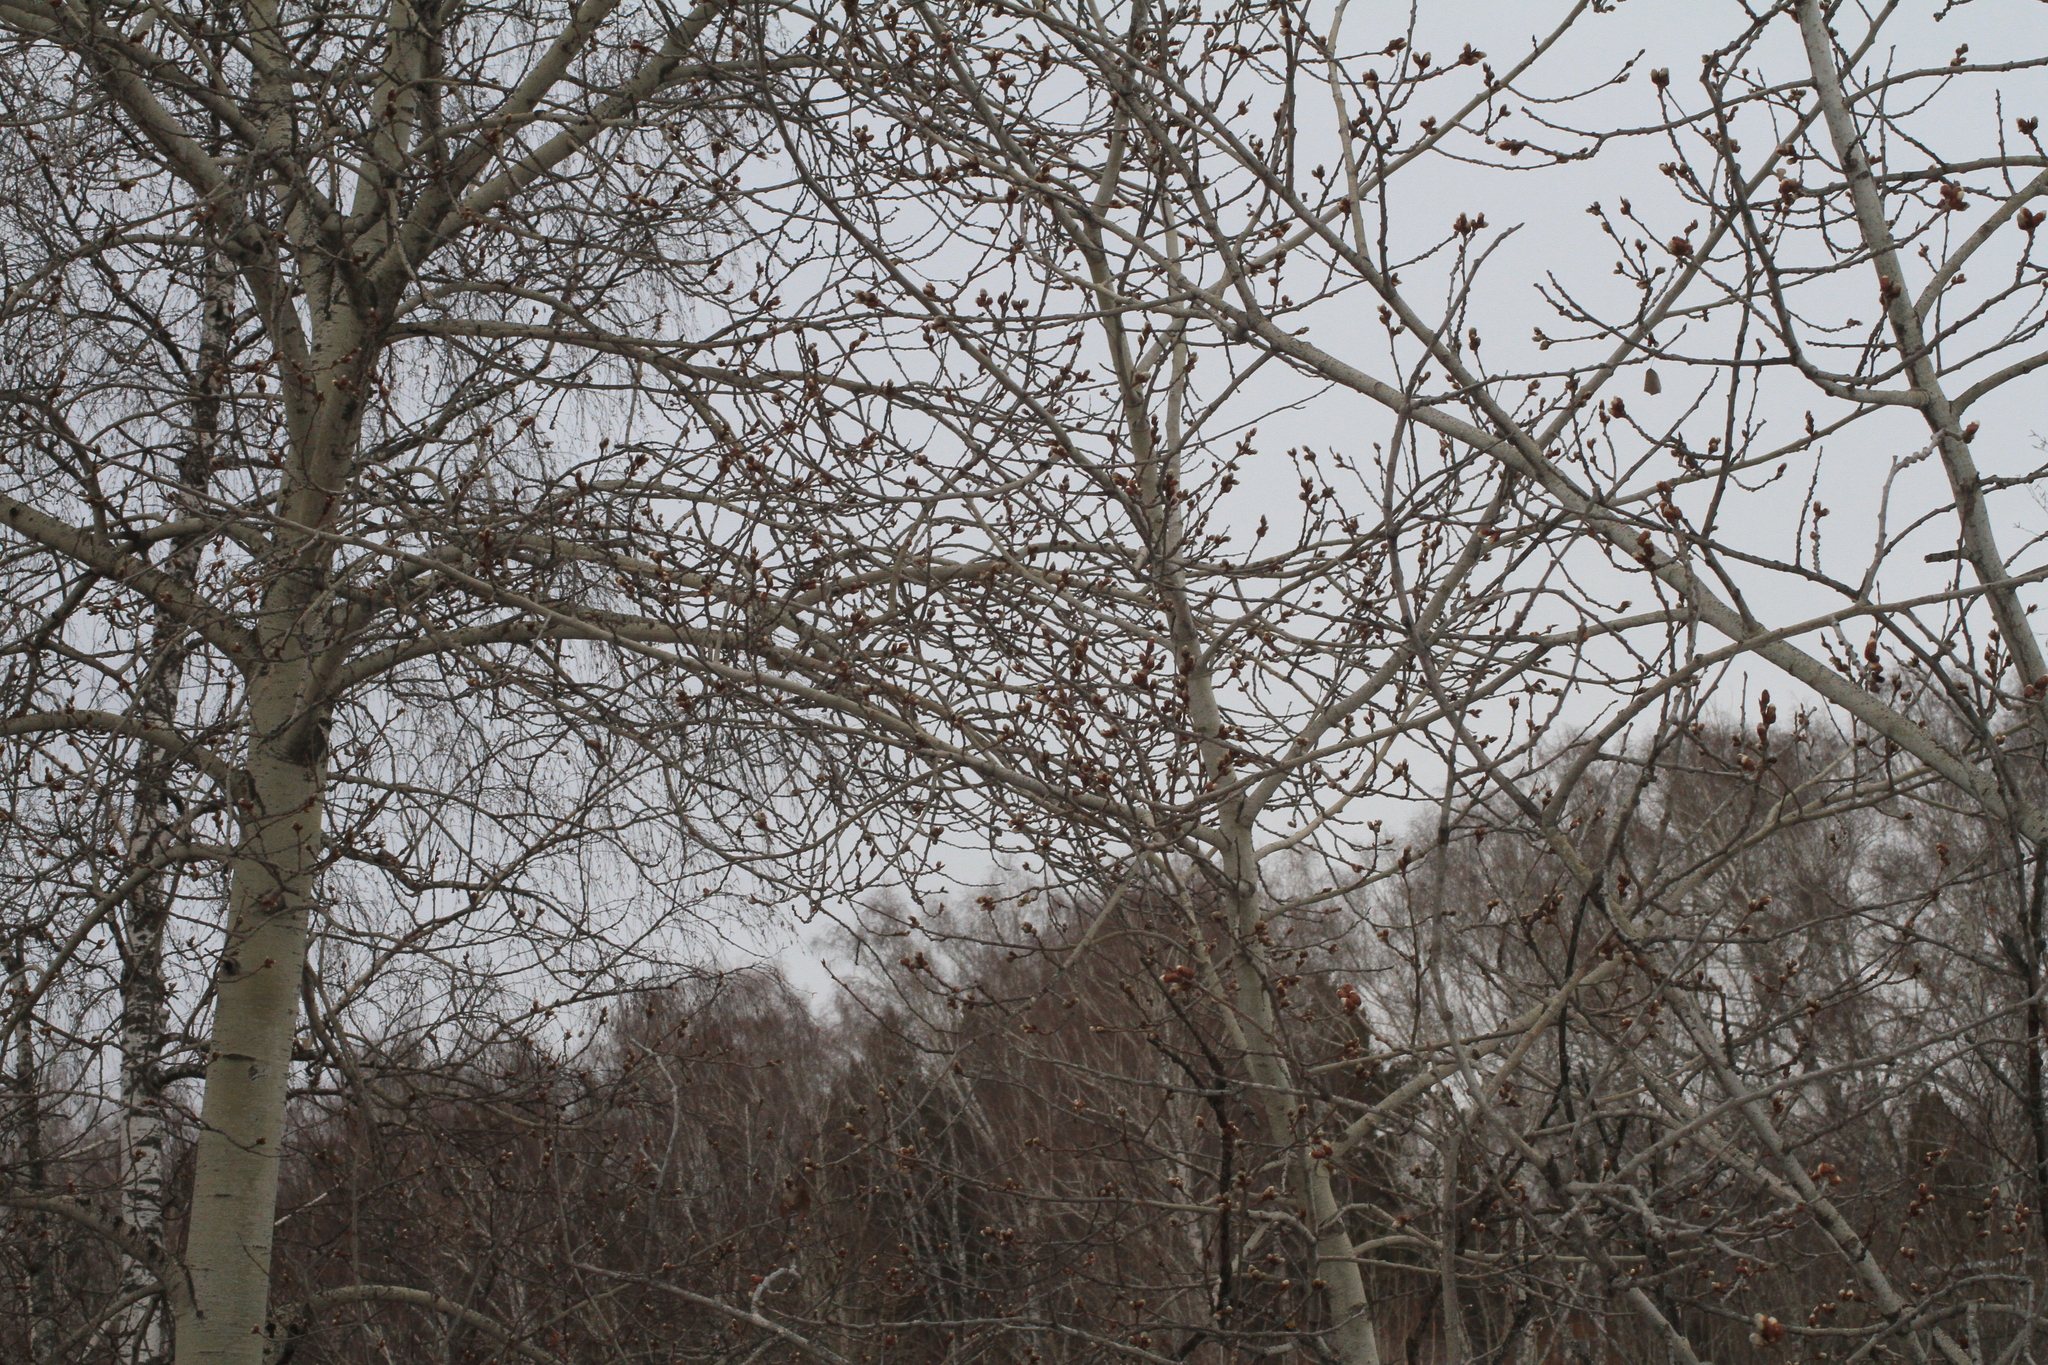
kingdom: Plantae
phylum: Tracheophyta
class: Magnoliopsida
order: Malpighiales
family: Salicaceae
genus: Populus
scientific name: Populus tremula
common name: European aspen
